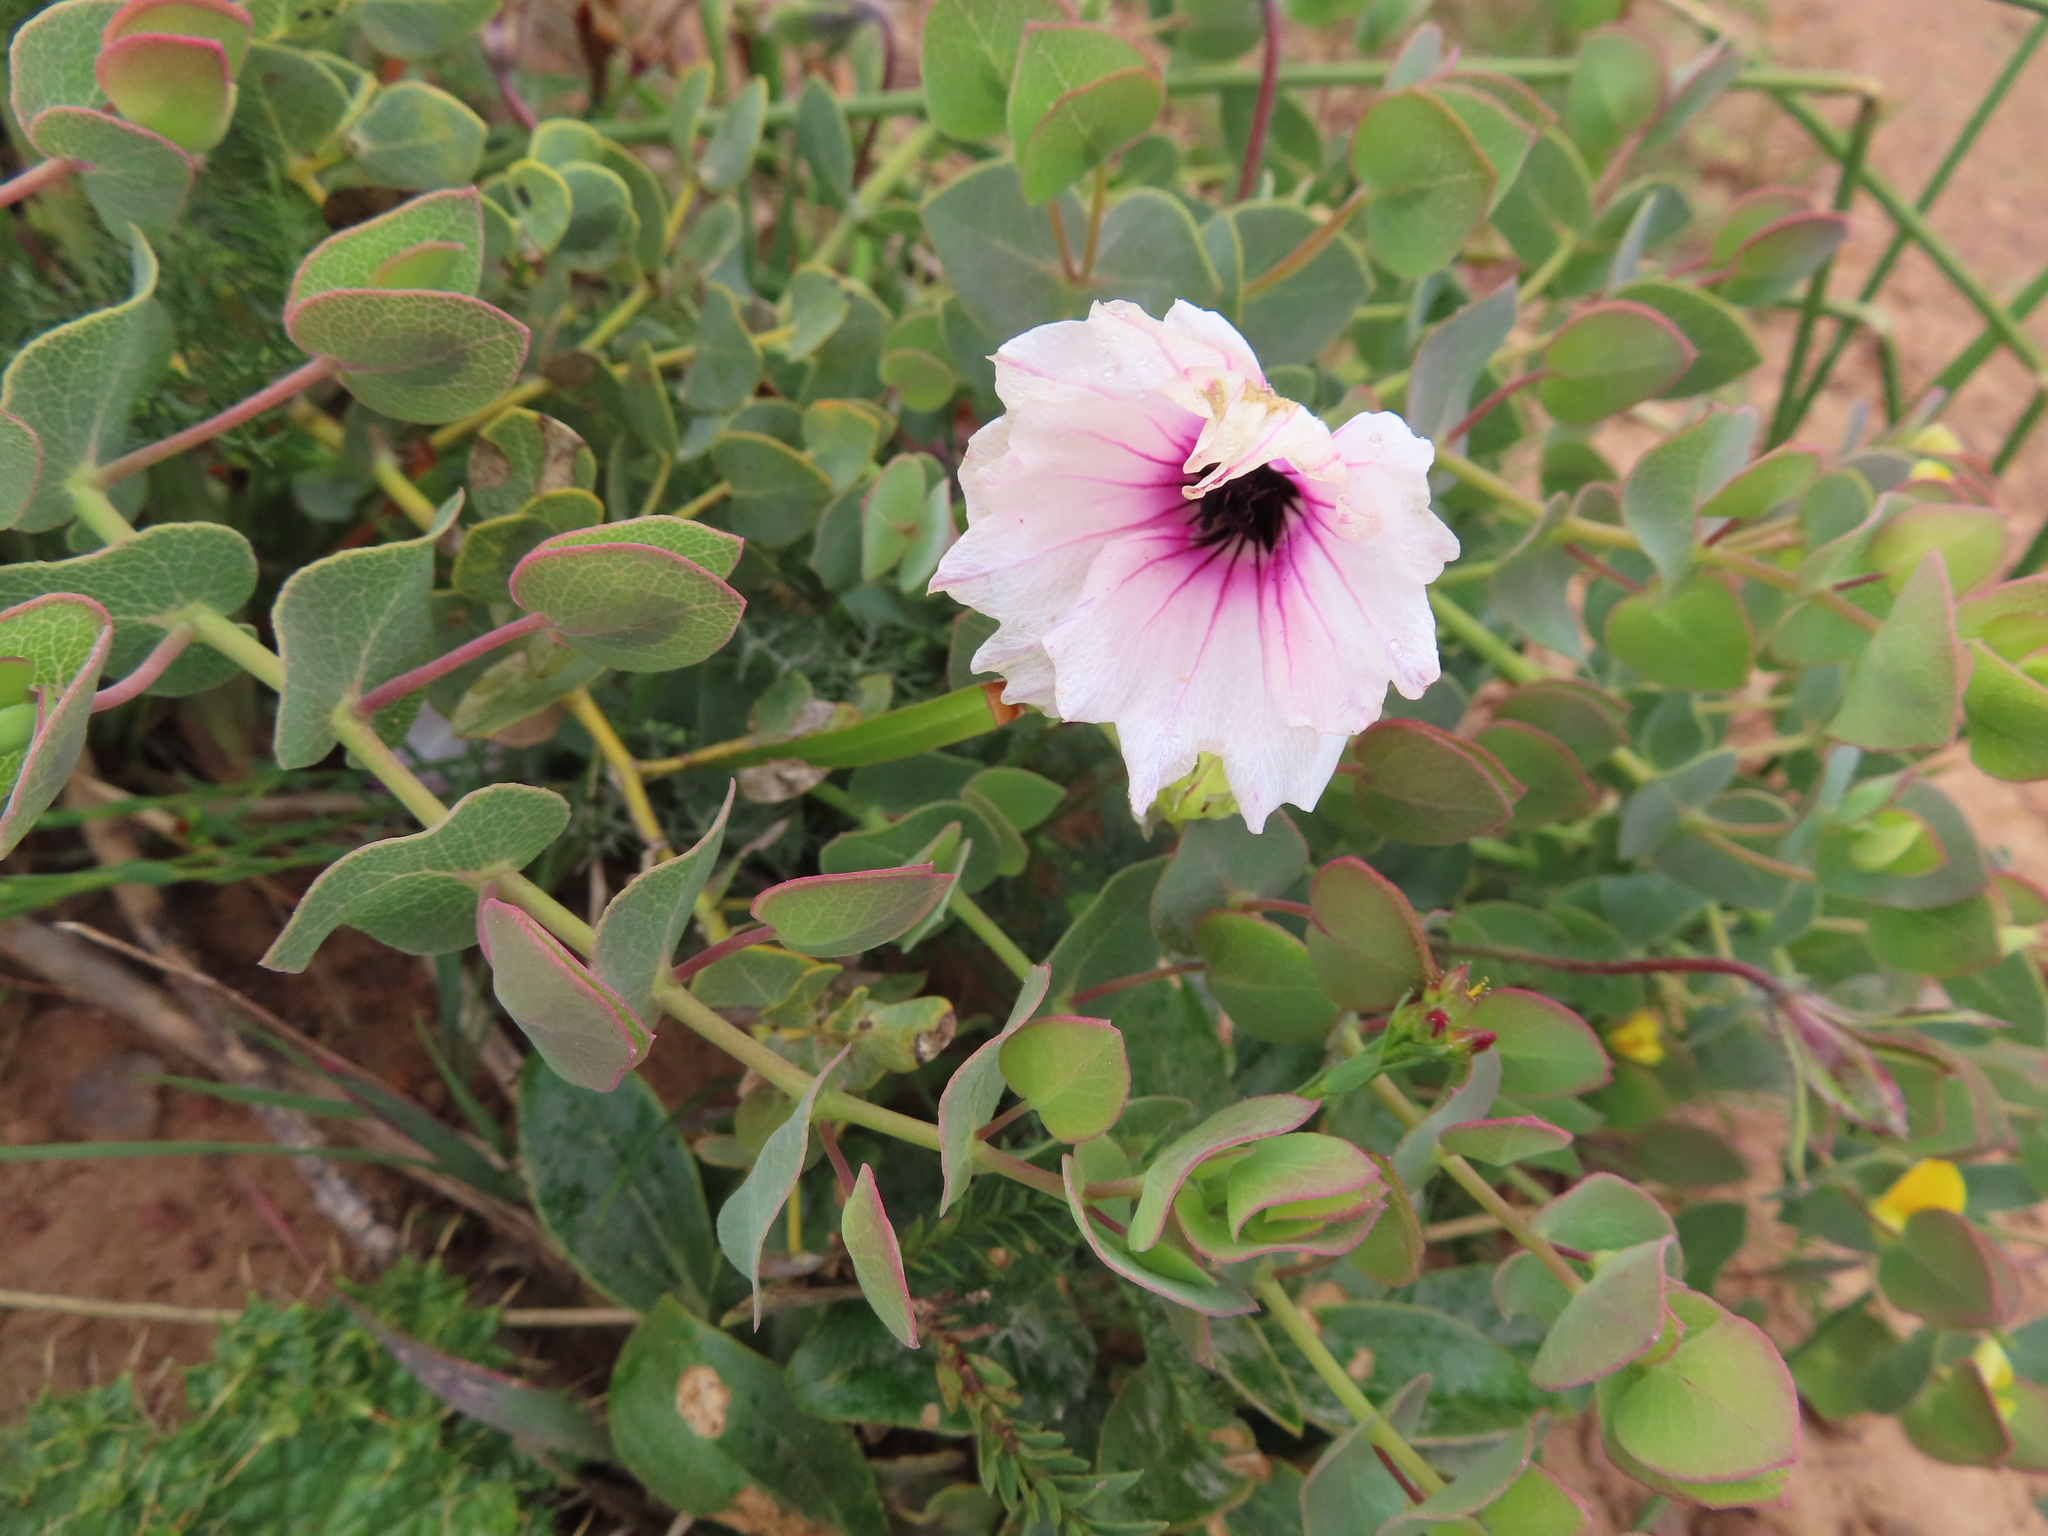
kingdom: Plantae
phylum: Tracheophyta
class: Magnoliopsida
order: Geraniales
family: Geraniaceae
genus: Monsonia
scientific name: Monsonia speciosa
